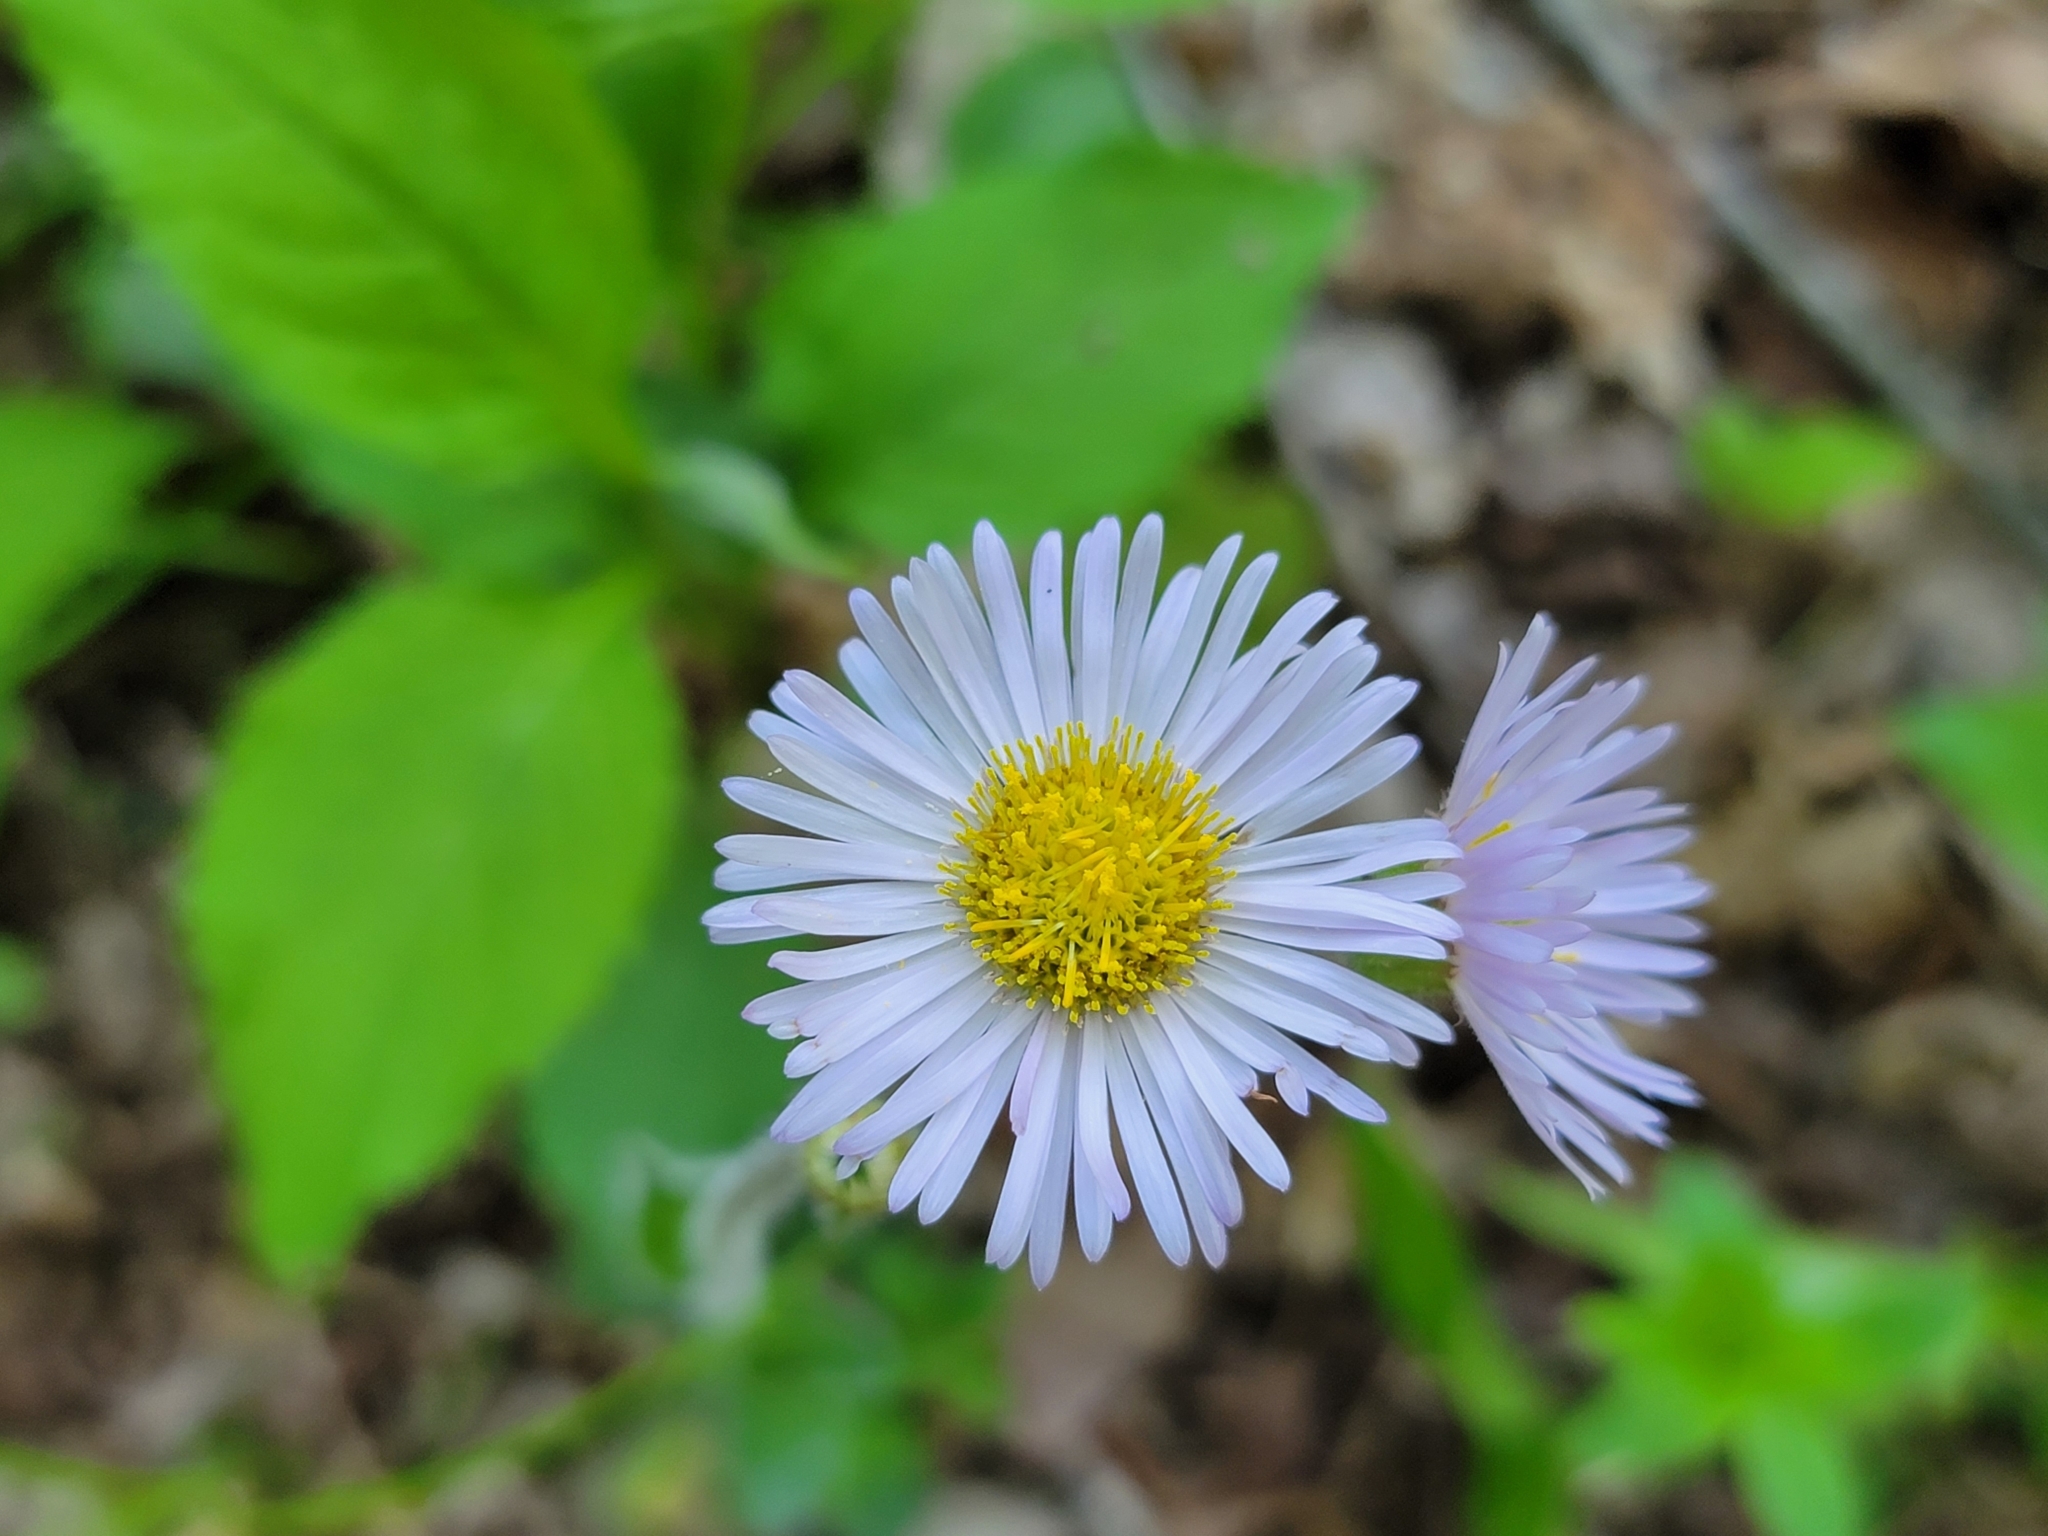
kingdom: Plantae
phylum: Tracheophyta
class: Magnoliopsida
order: Asterales
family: Asteraceae
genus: Erigeron
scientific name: Erigeron pulchellus
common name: Hairy fleabane
